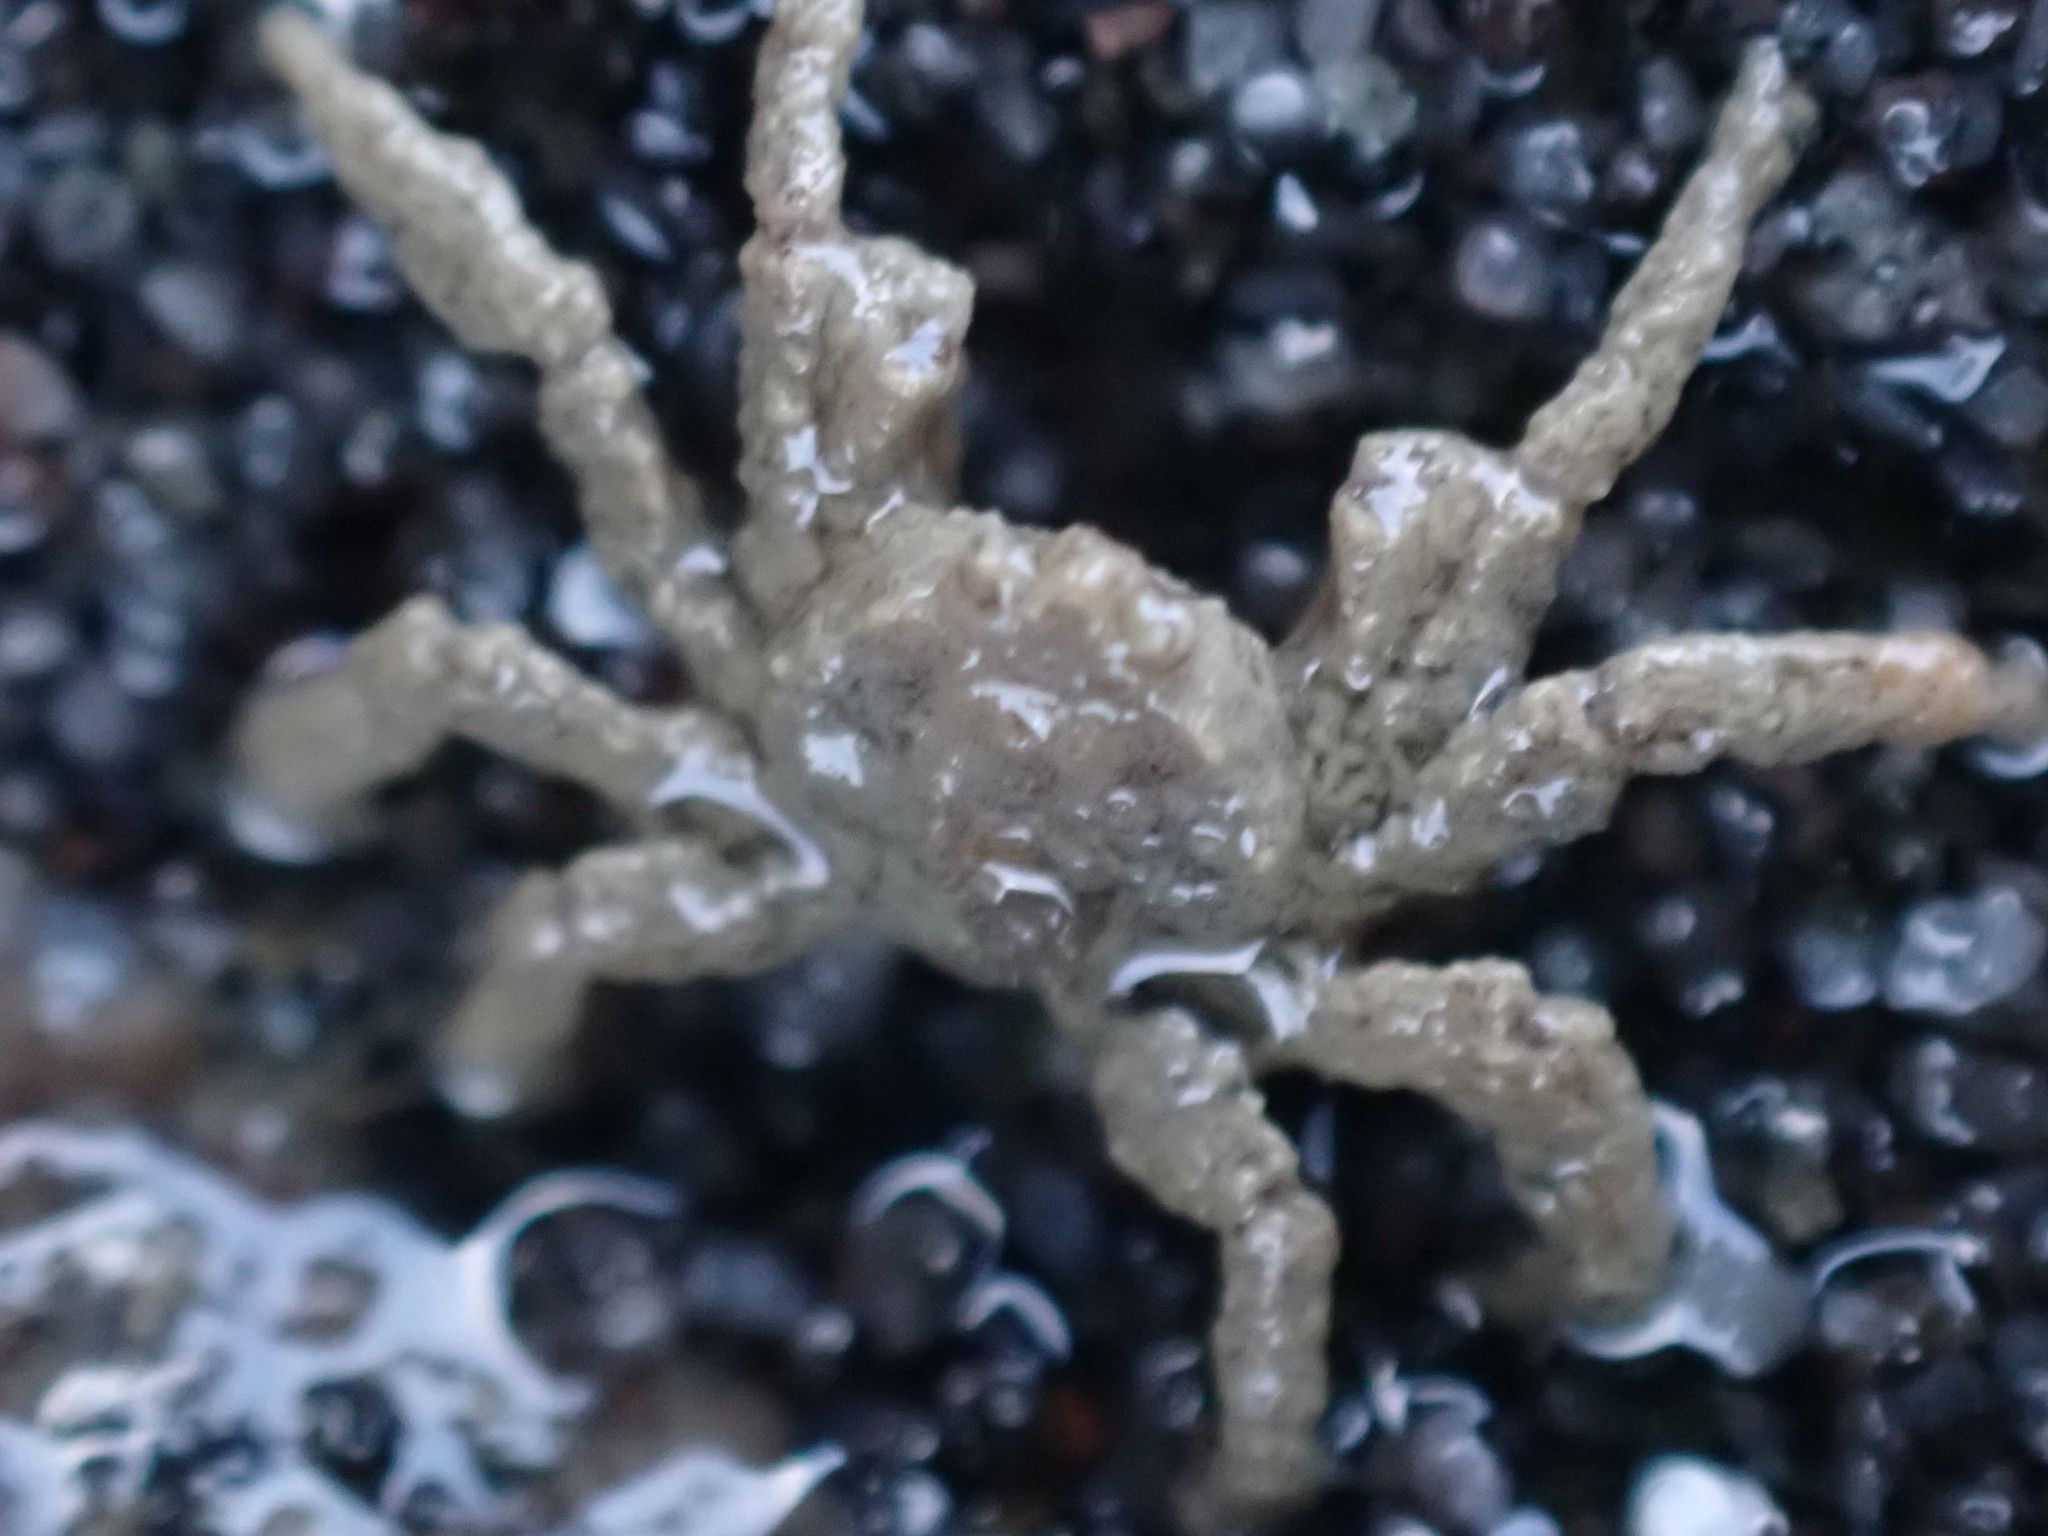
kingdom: Animalia
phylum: Arthropoda
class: Malacostraca
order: Decapoda
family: Hymenosomatidae
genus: Neohymenicus
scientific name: Neohymenicus pubescens
